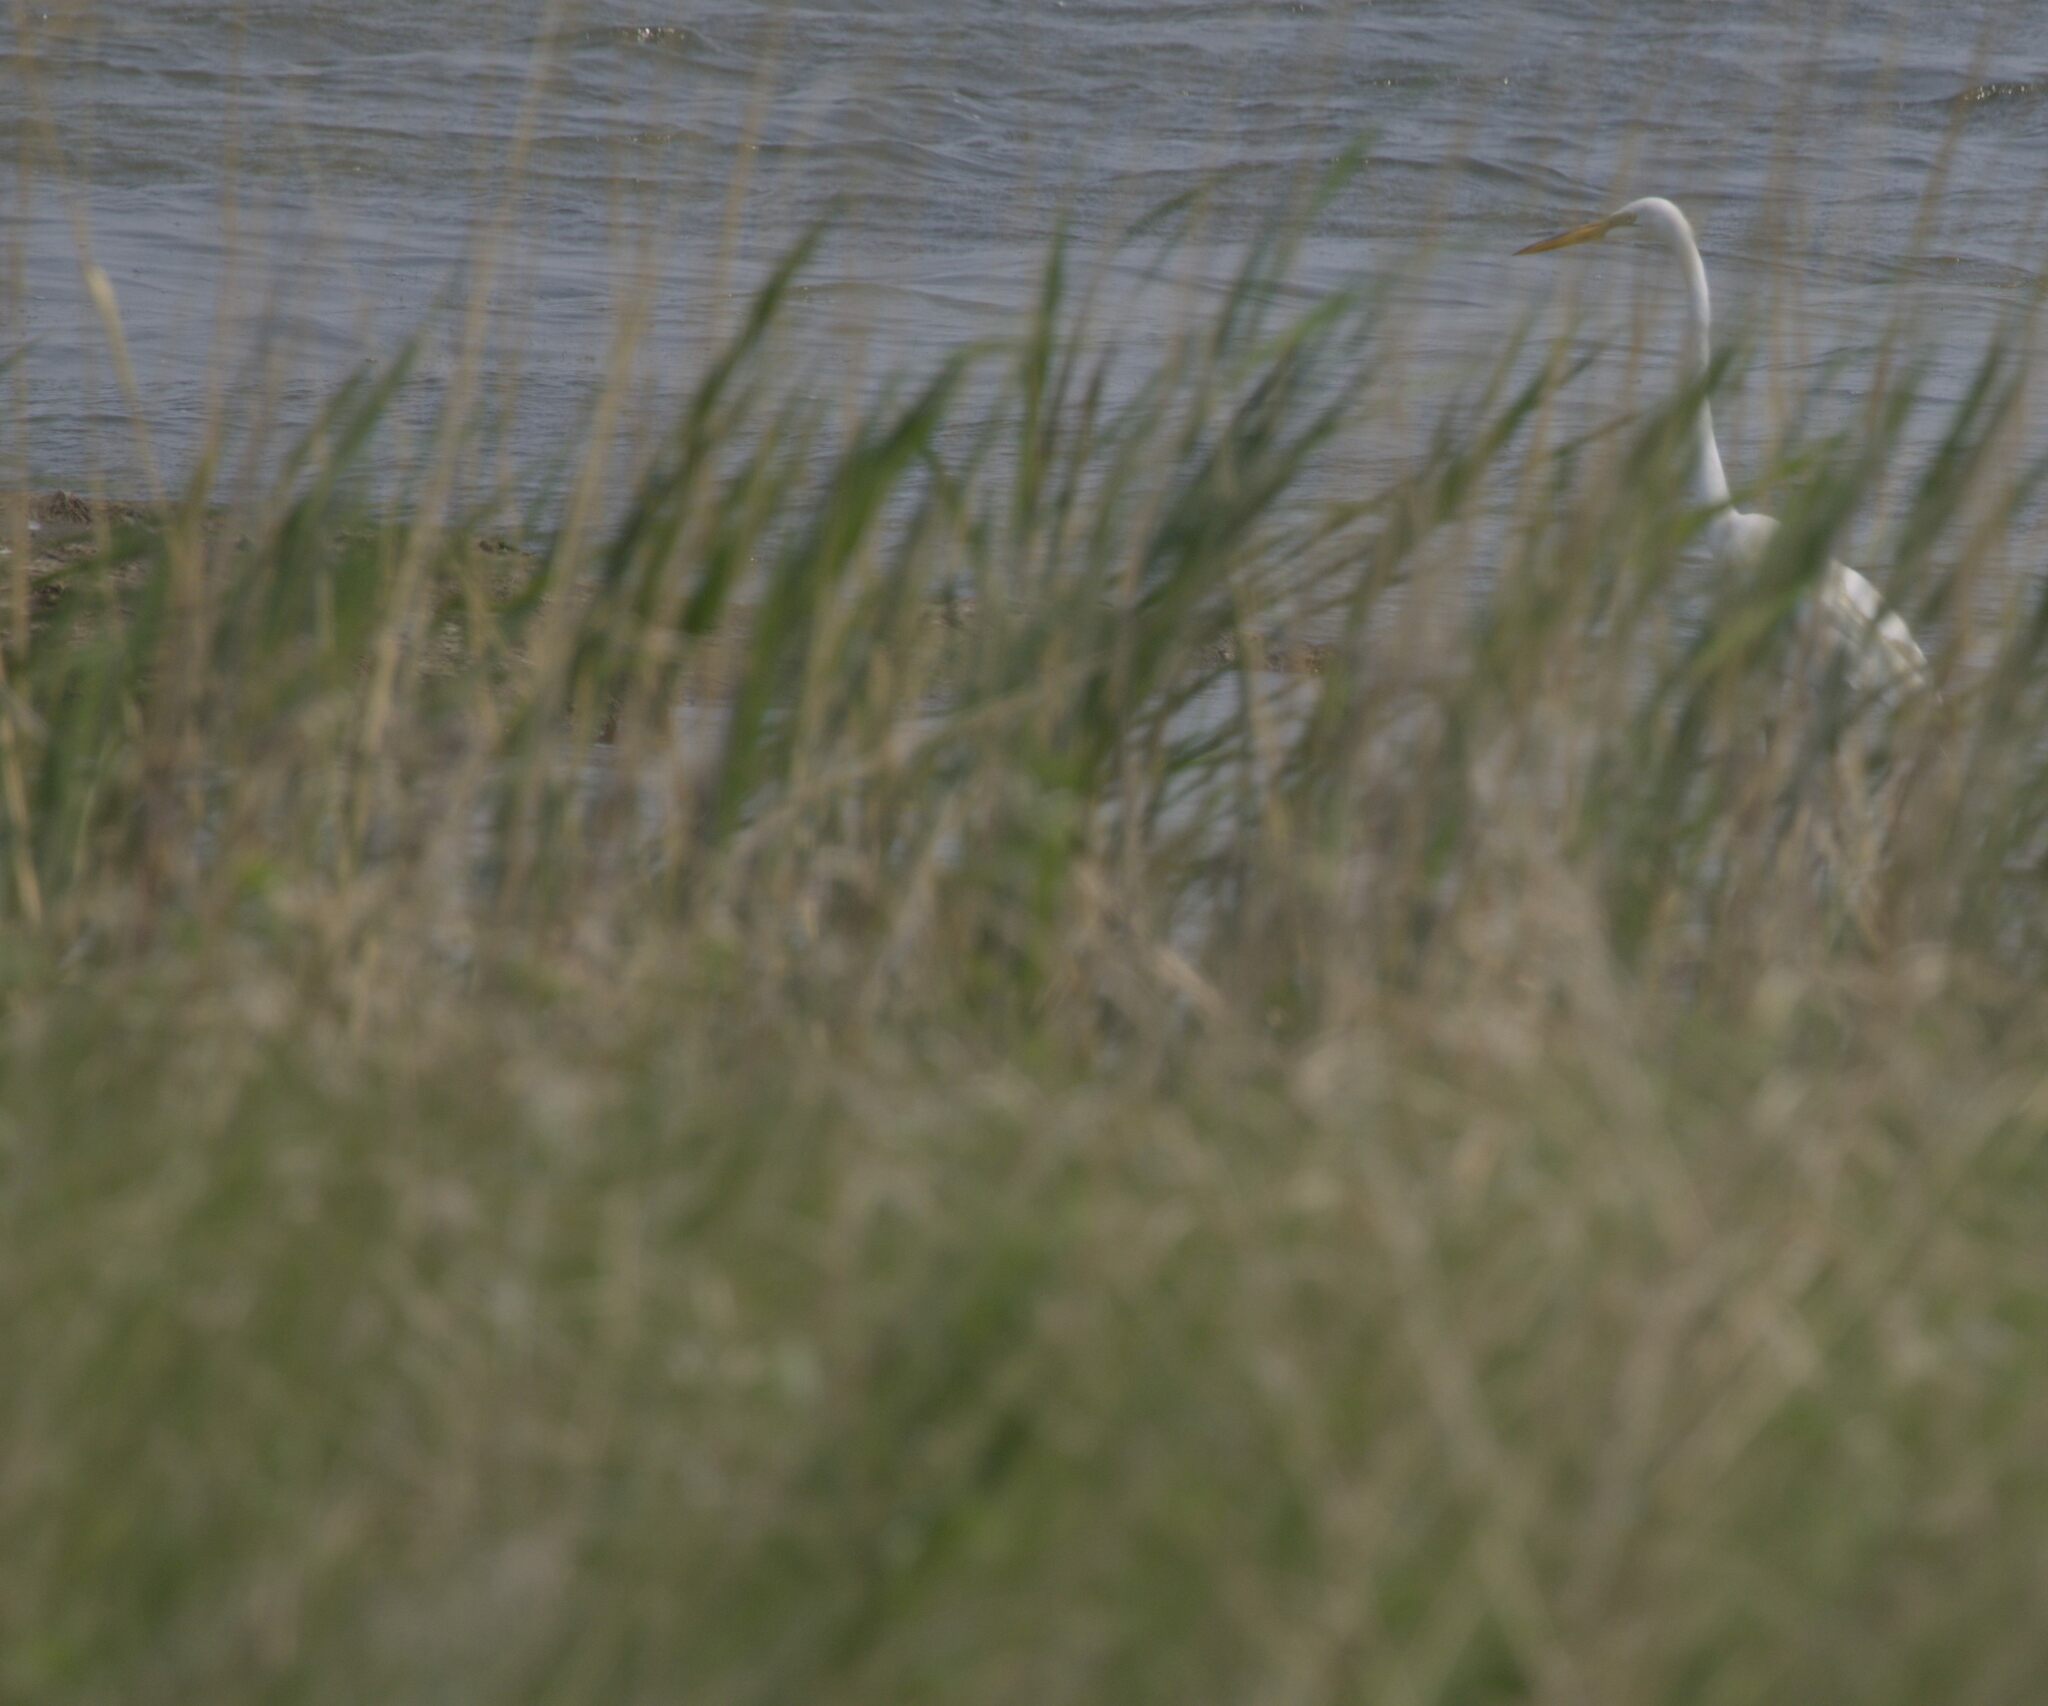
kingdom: Animalia
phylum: Chordata
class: Aves
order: Pelecaniformes
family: Ardeidae
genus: Ardea
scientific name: Ardea alba
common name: Great egret
